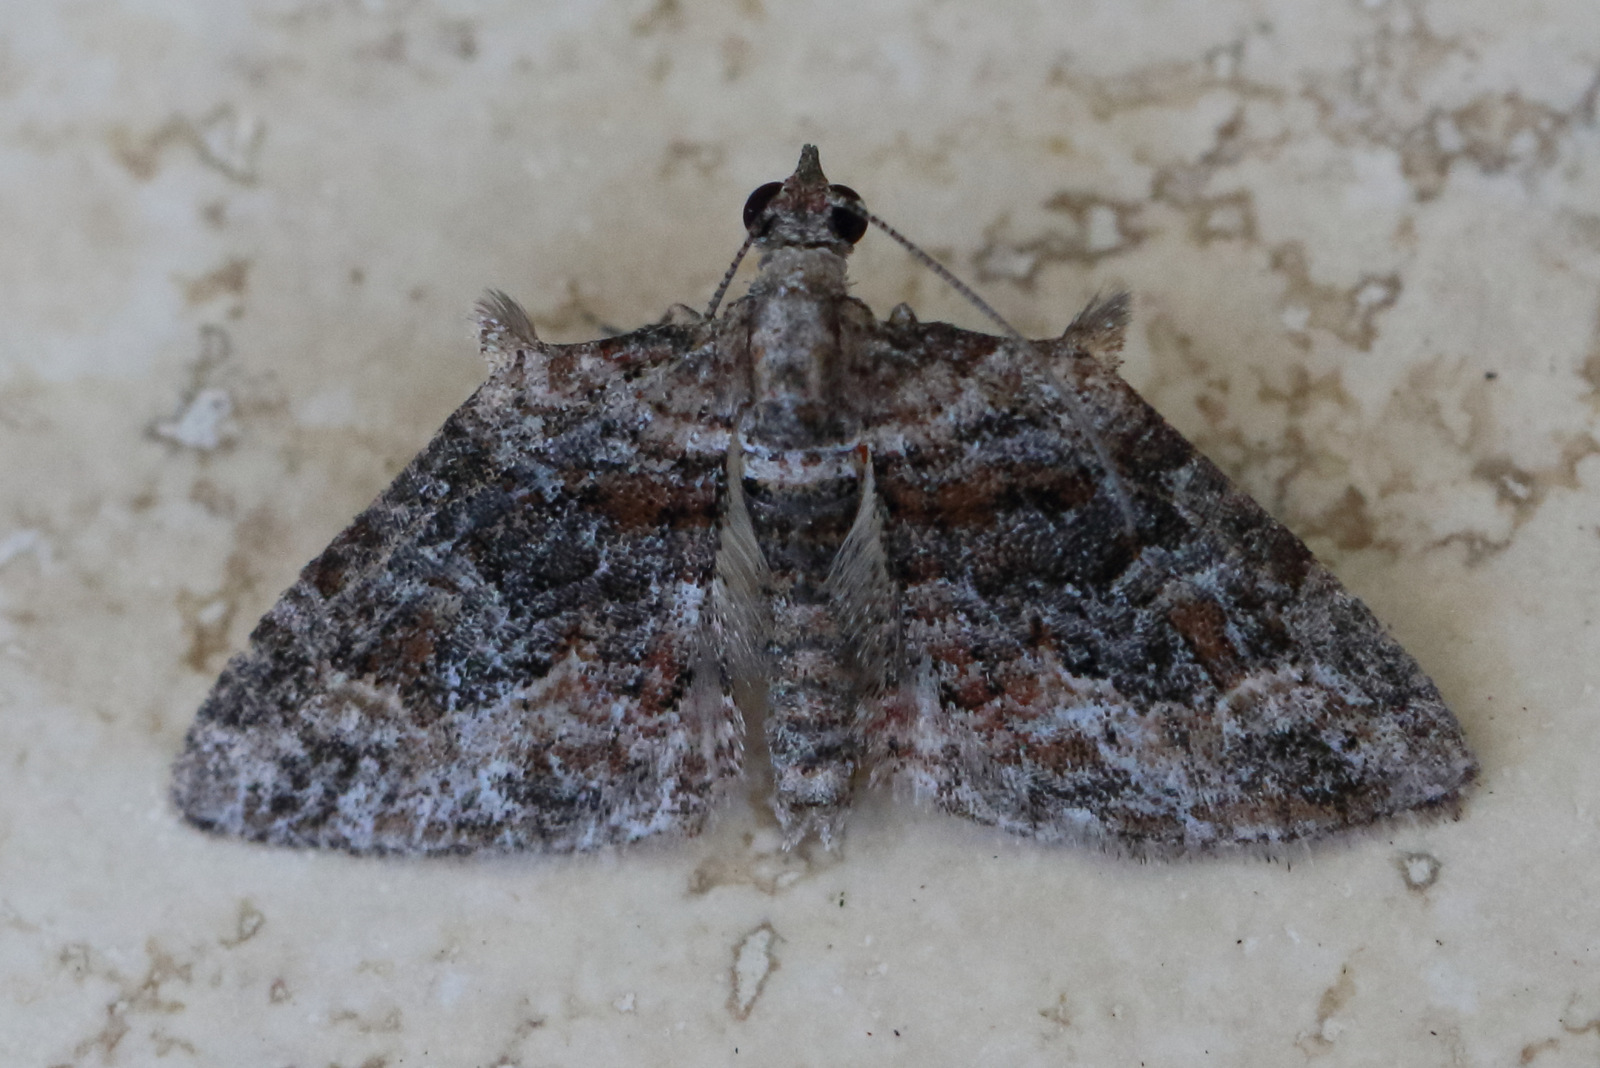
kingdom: Animalia
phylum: Arthropoda
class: Insecta
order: Lepidoptera
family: Geometridae
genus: Phrissogonus
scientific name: Phrissogonus laticostata
